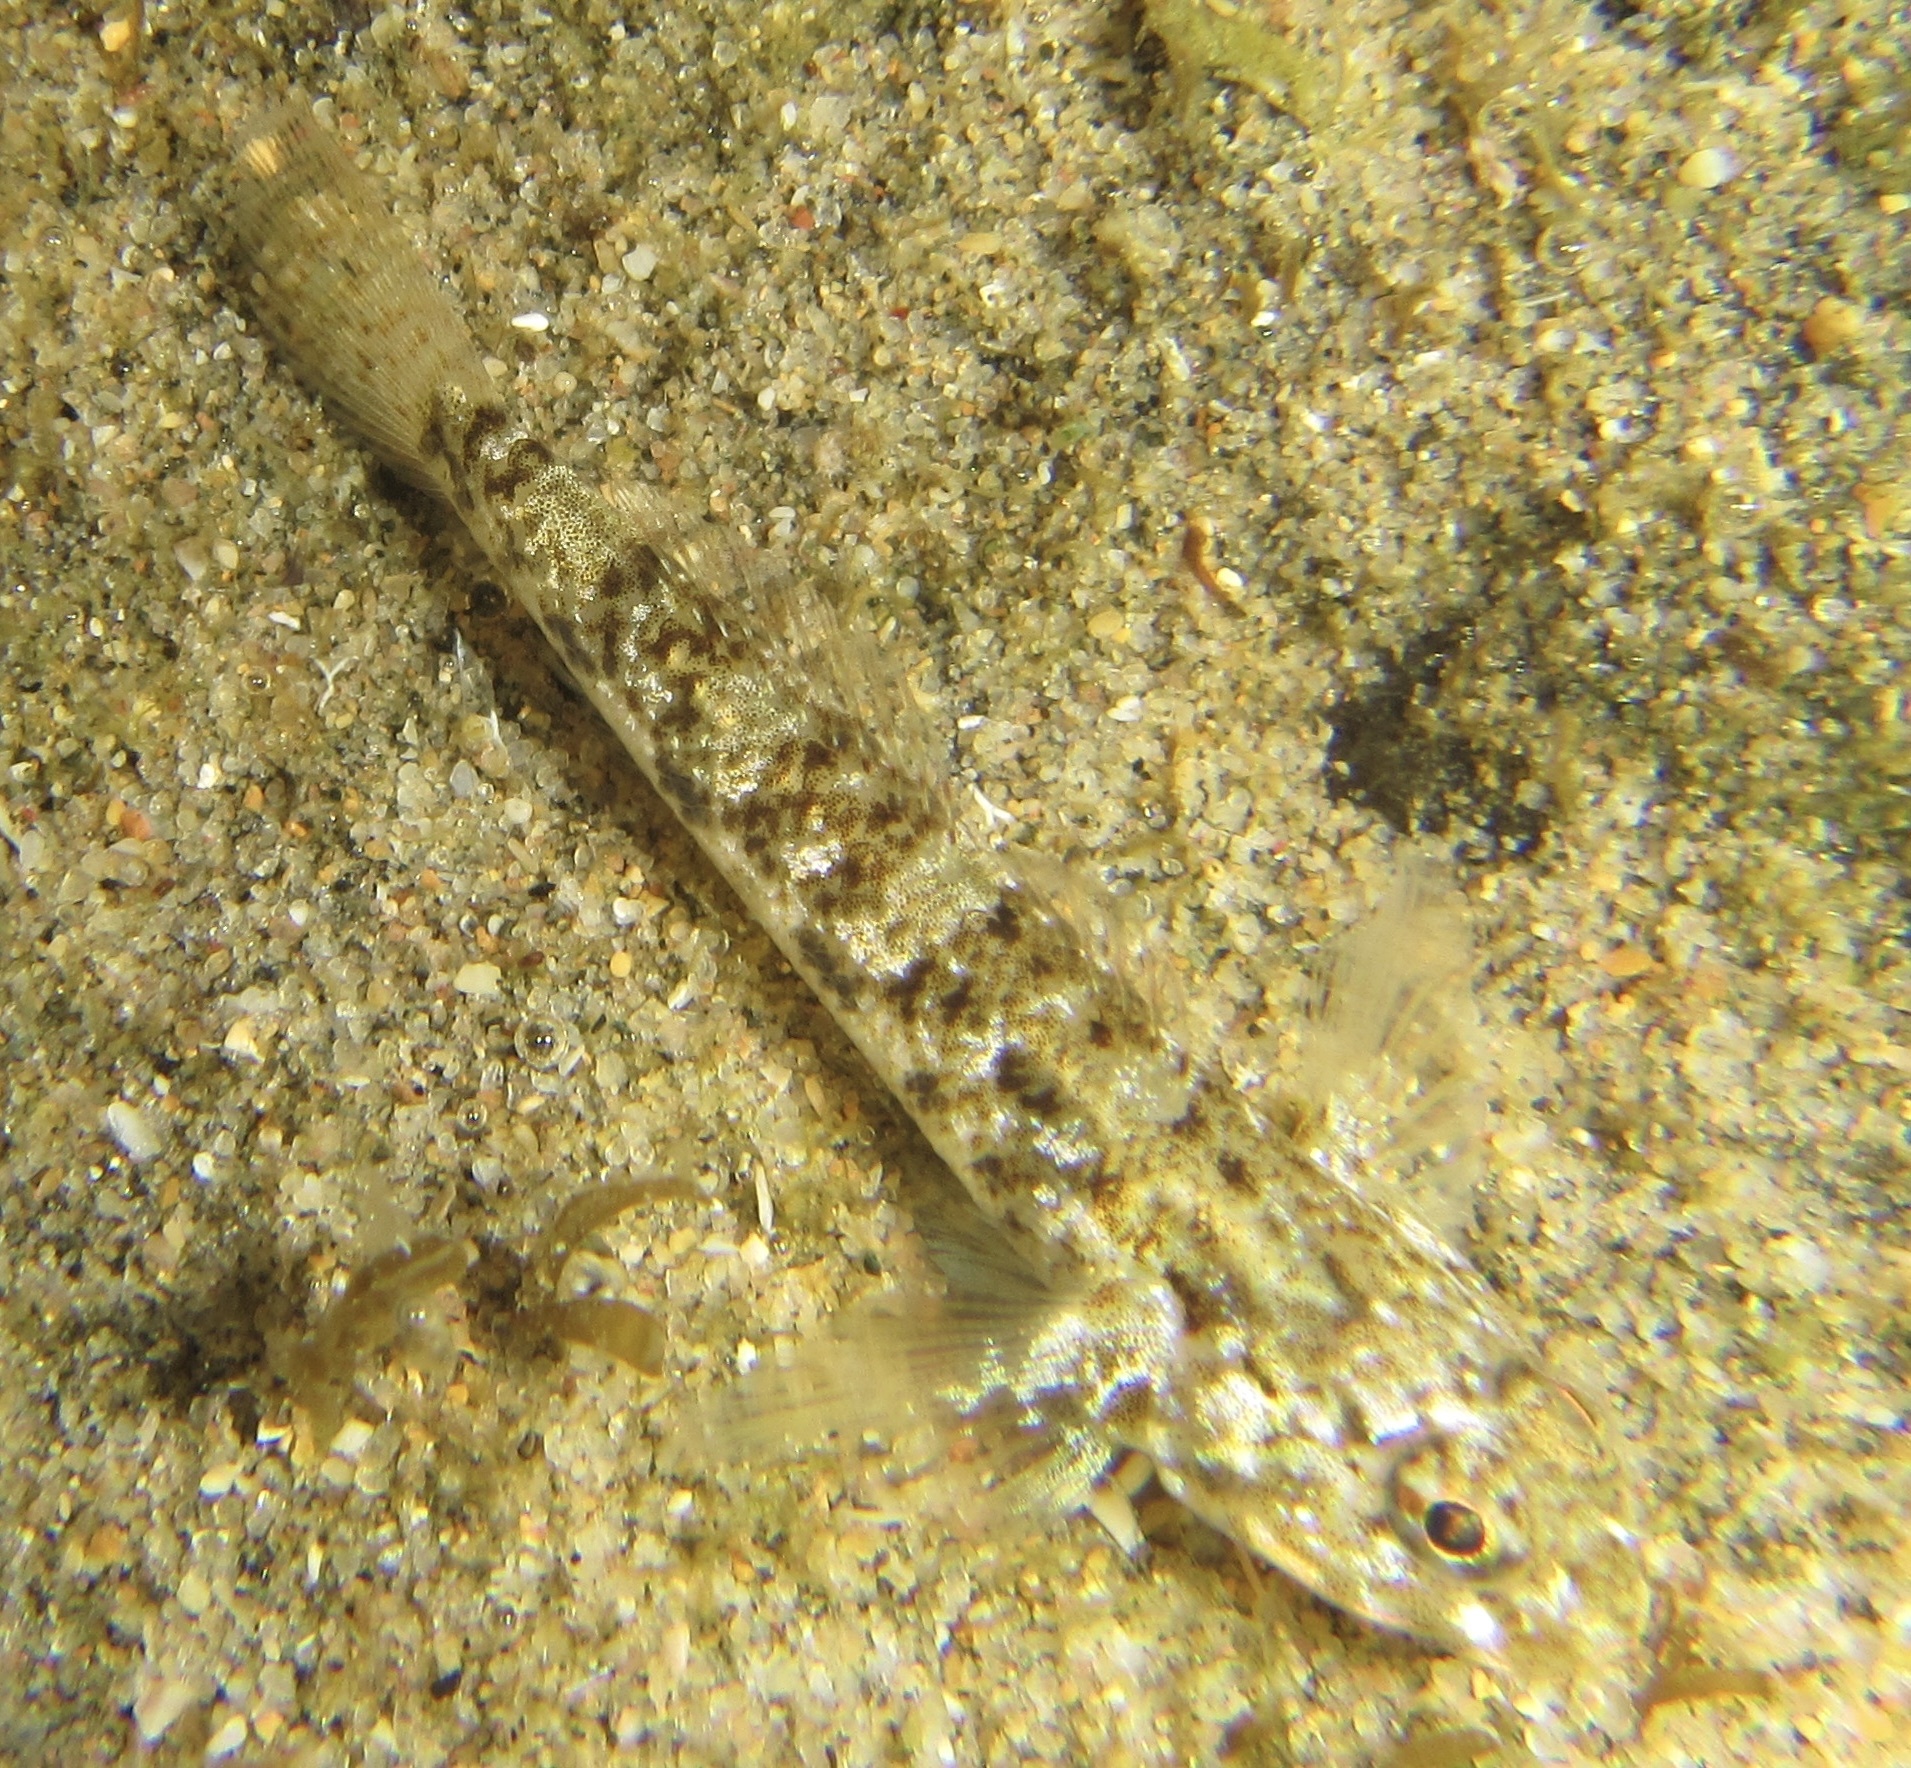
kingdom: Animalia
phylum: Chordata
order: Perciformes
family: Gobiidae
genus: Bathygobius
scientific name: Bathygobius cocosensis
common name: Cocos frillgoby
